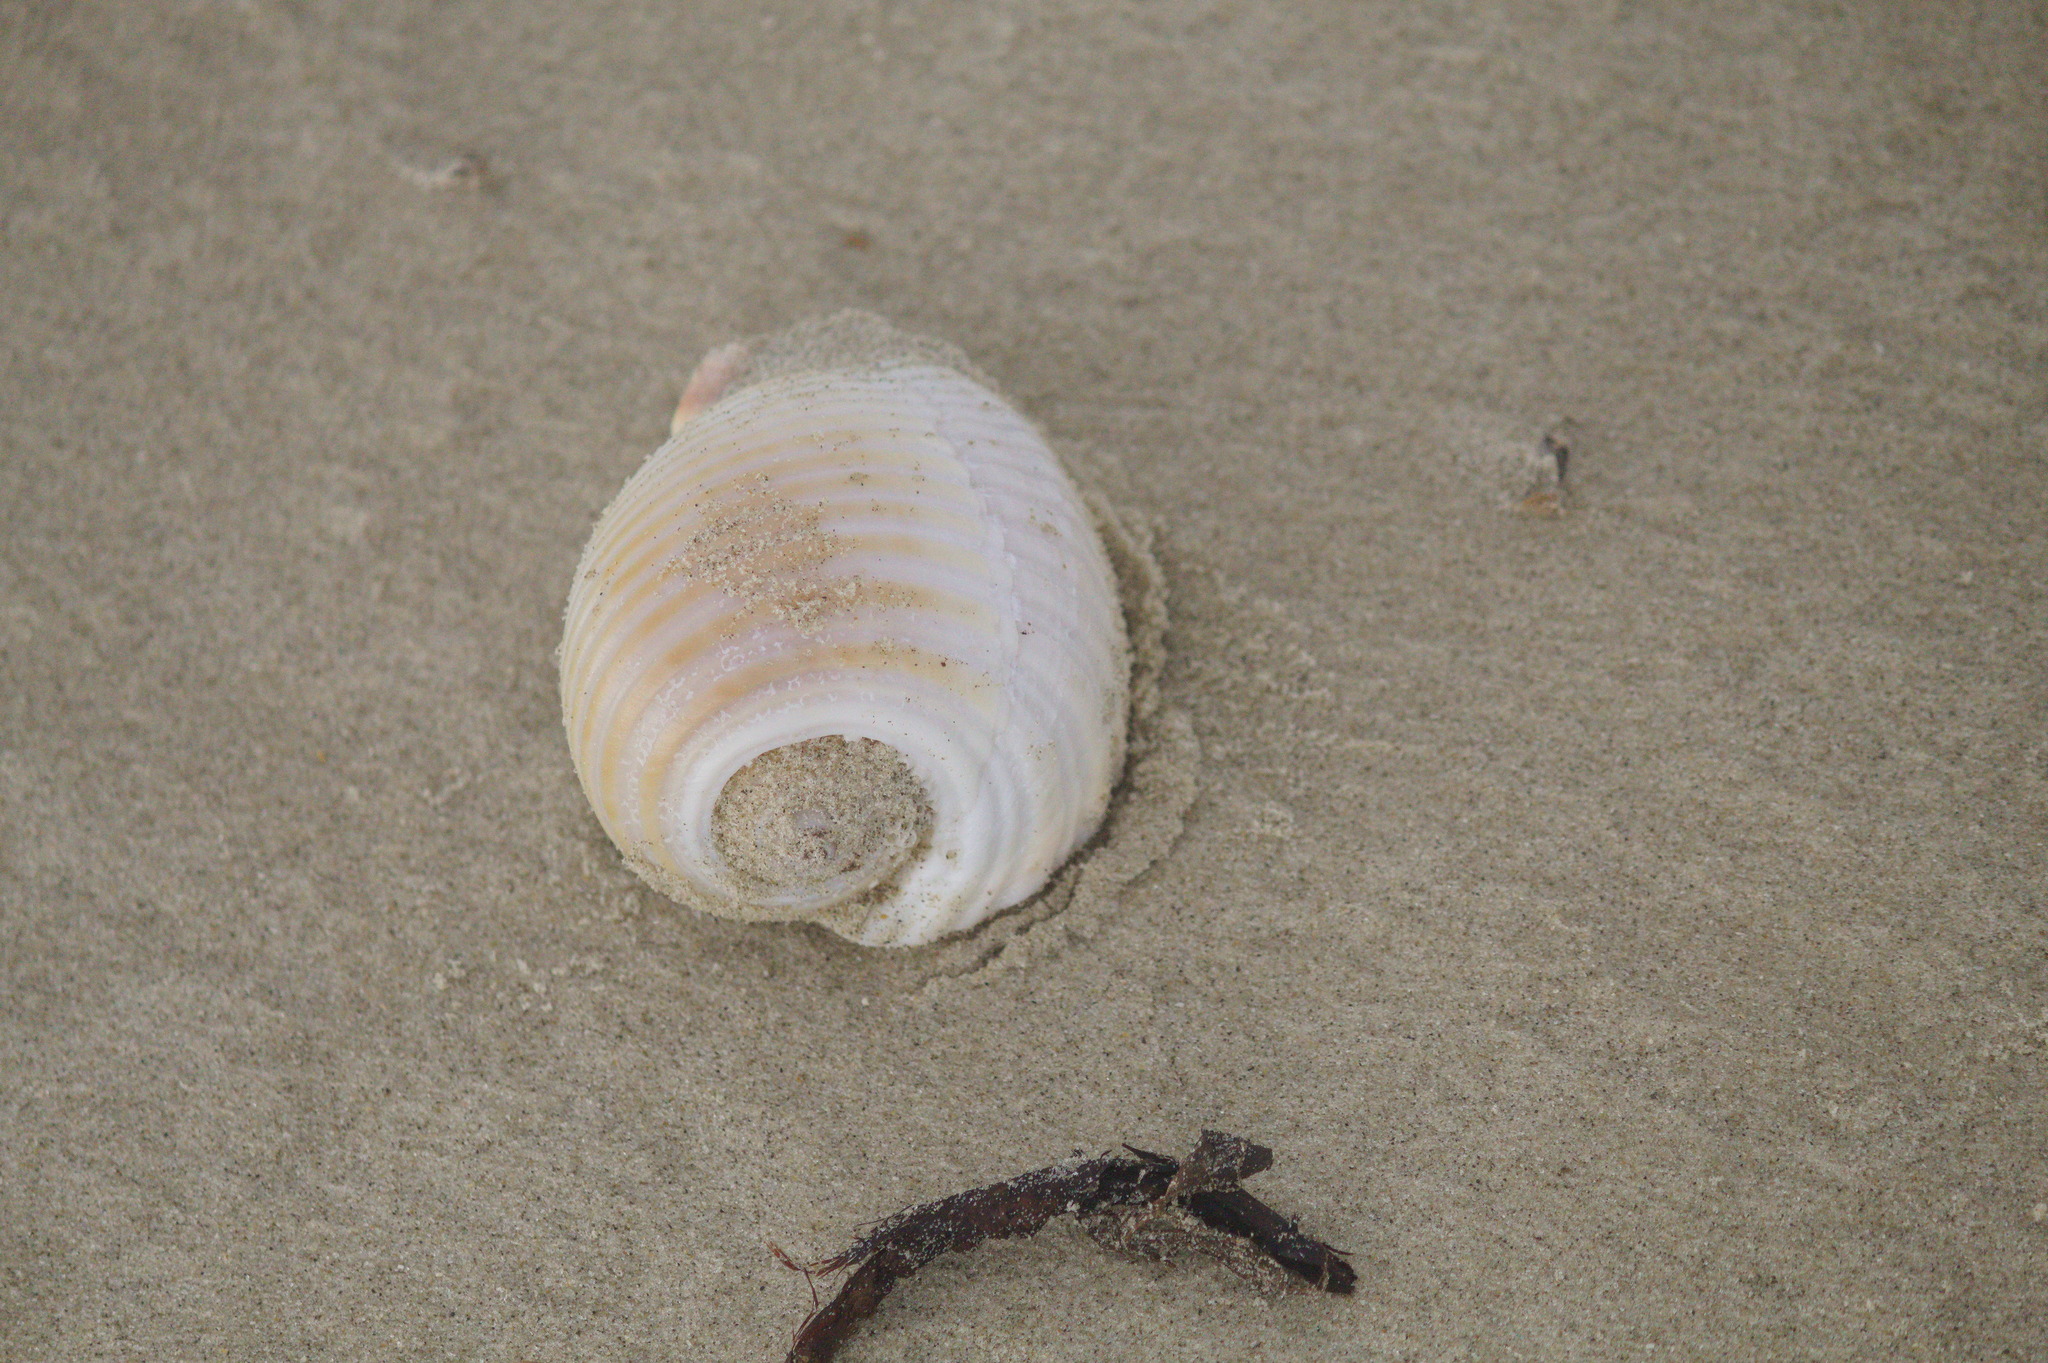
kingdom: Animalia
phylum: Mollusca
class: Gastropoda
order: Littorinimorpha
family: Tonnidae
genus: Tonna
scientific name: Tonna galea
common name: Giant tun
